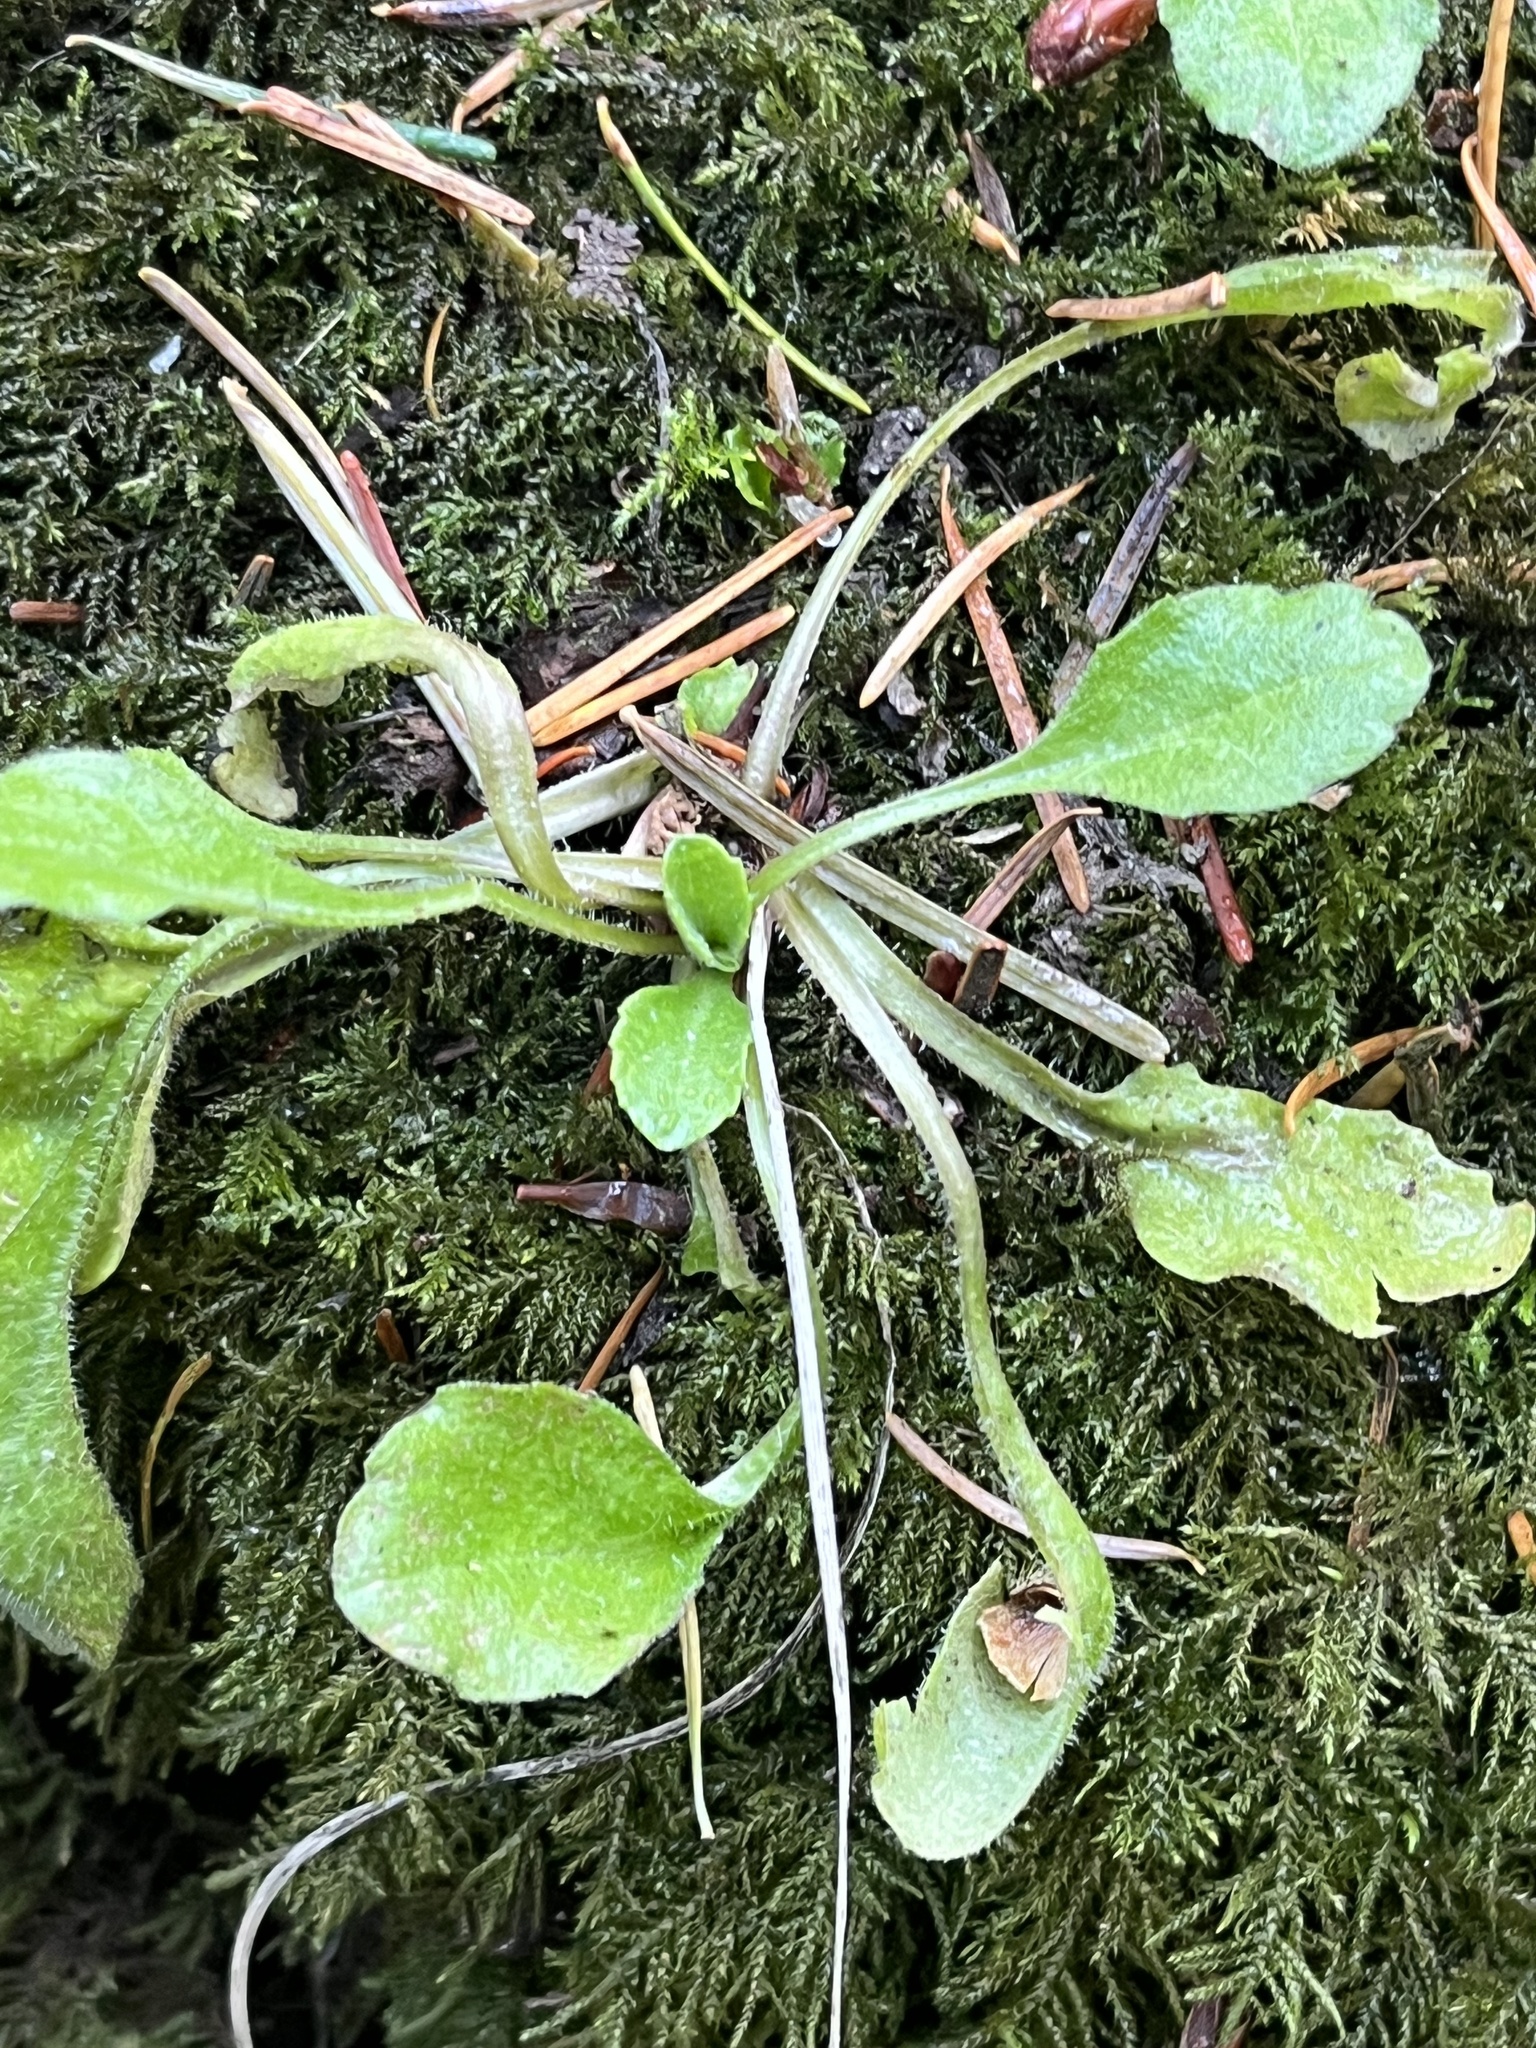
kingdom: Plantae
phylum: Tracheophyta
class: Magnoliopsida
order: Asterales
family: Asteraceae
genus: Bellis
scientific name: Bellis perennis
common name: Lawndaisy
